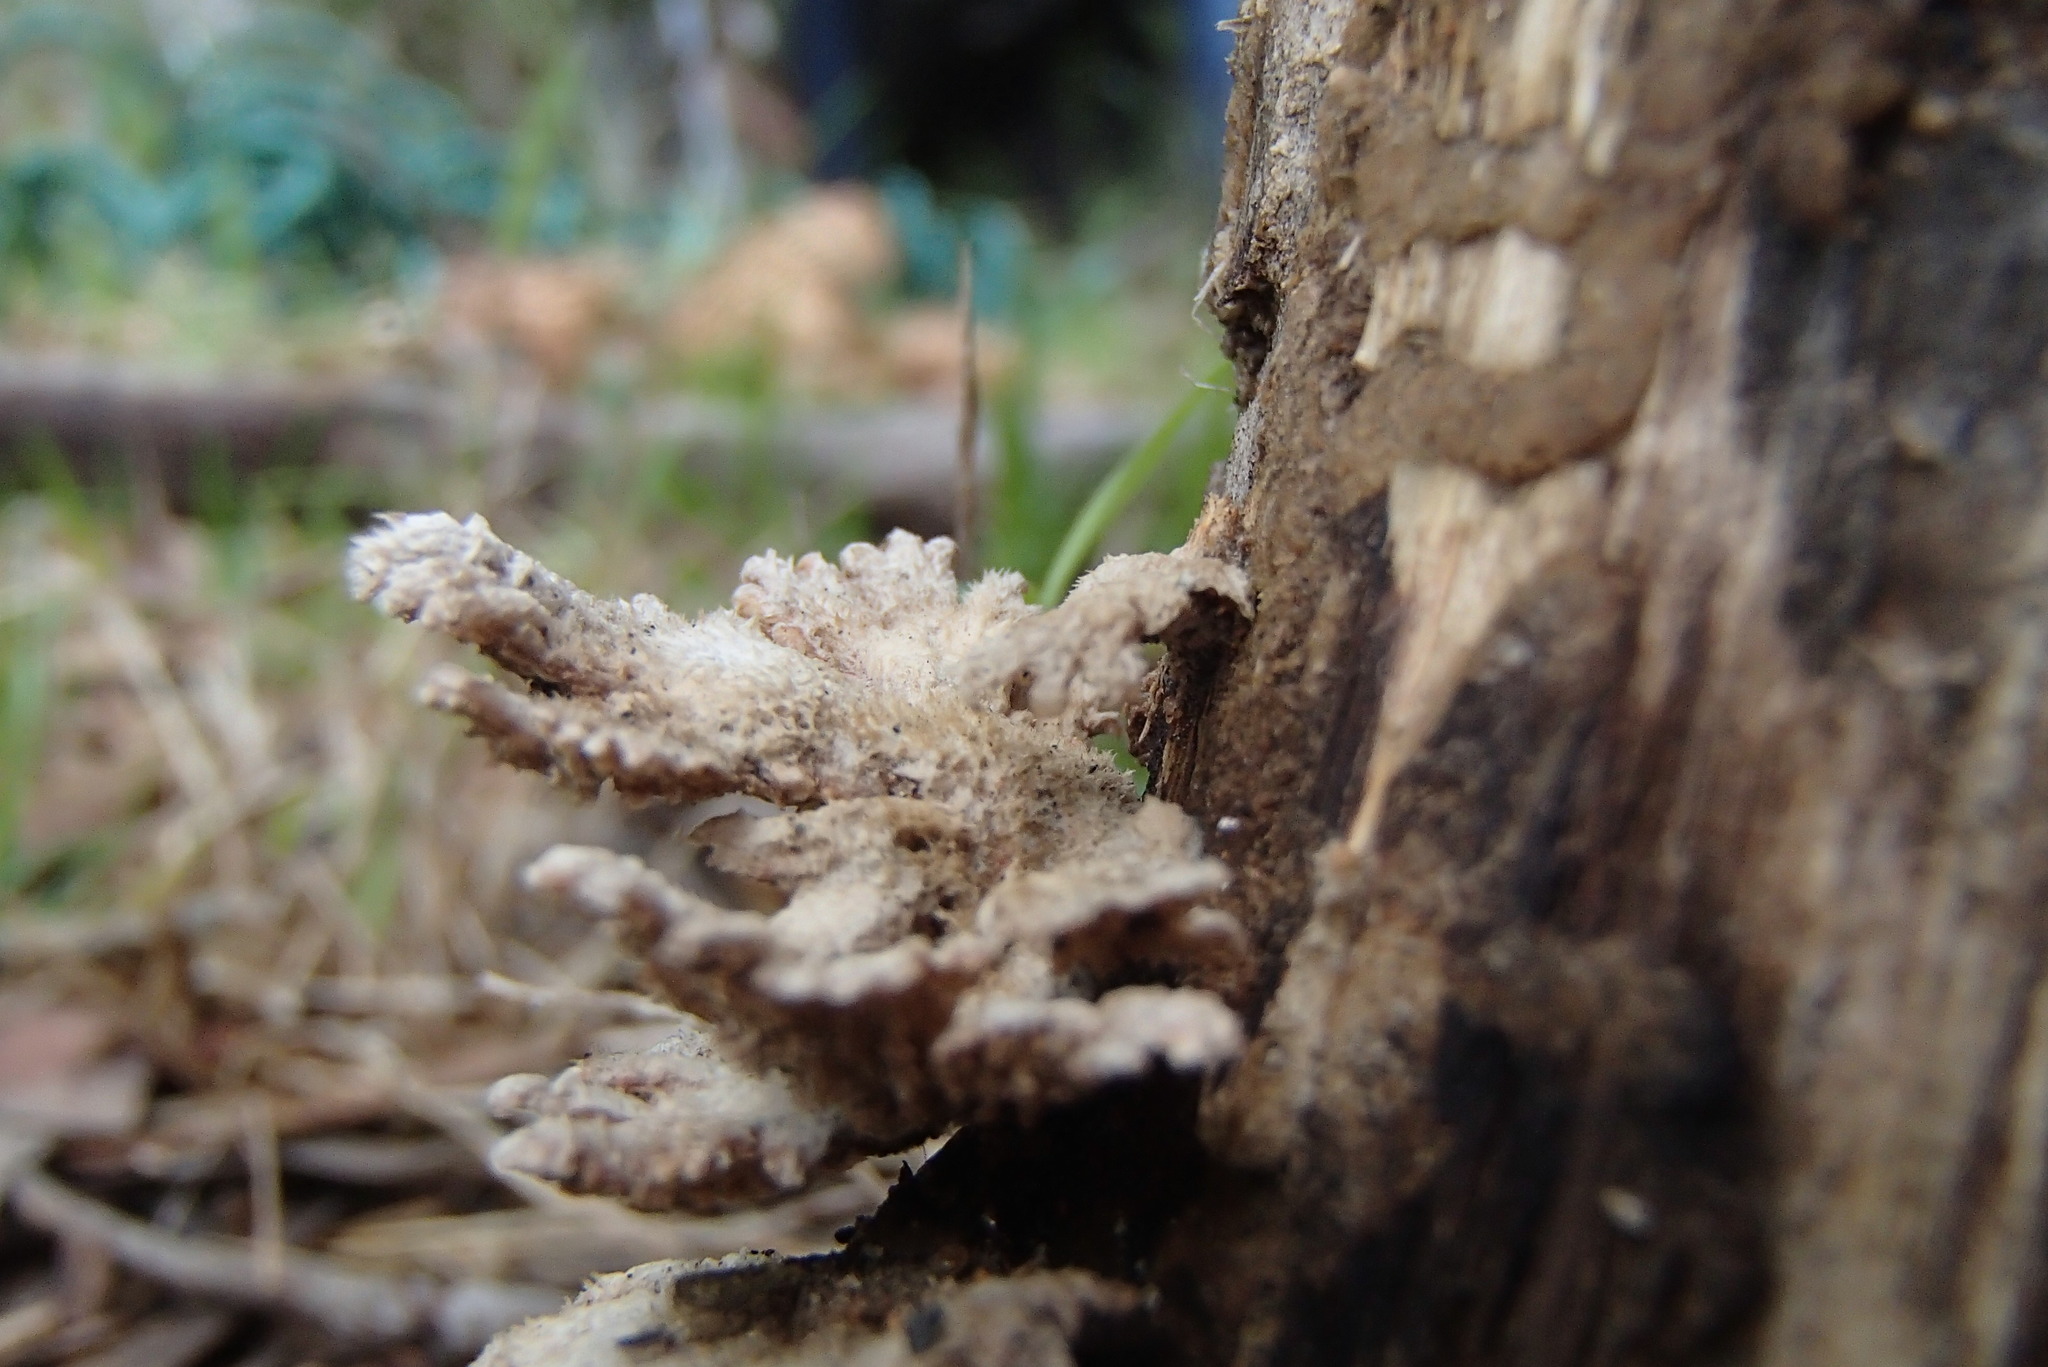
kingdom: Fungi
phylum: Basidiomycota
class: Agaricomycetes
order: Agaricales
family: Schizophyllaceae
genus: Schizophyllum
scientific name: Schizophyllum commune
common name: Common porecrust
